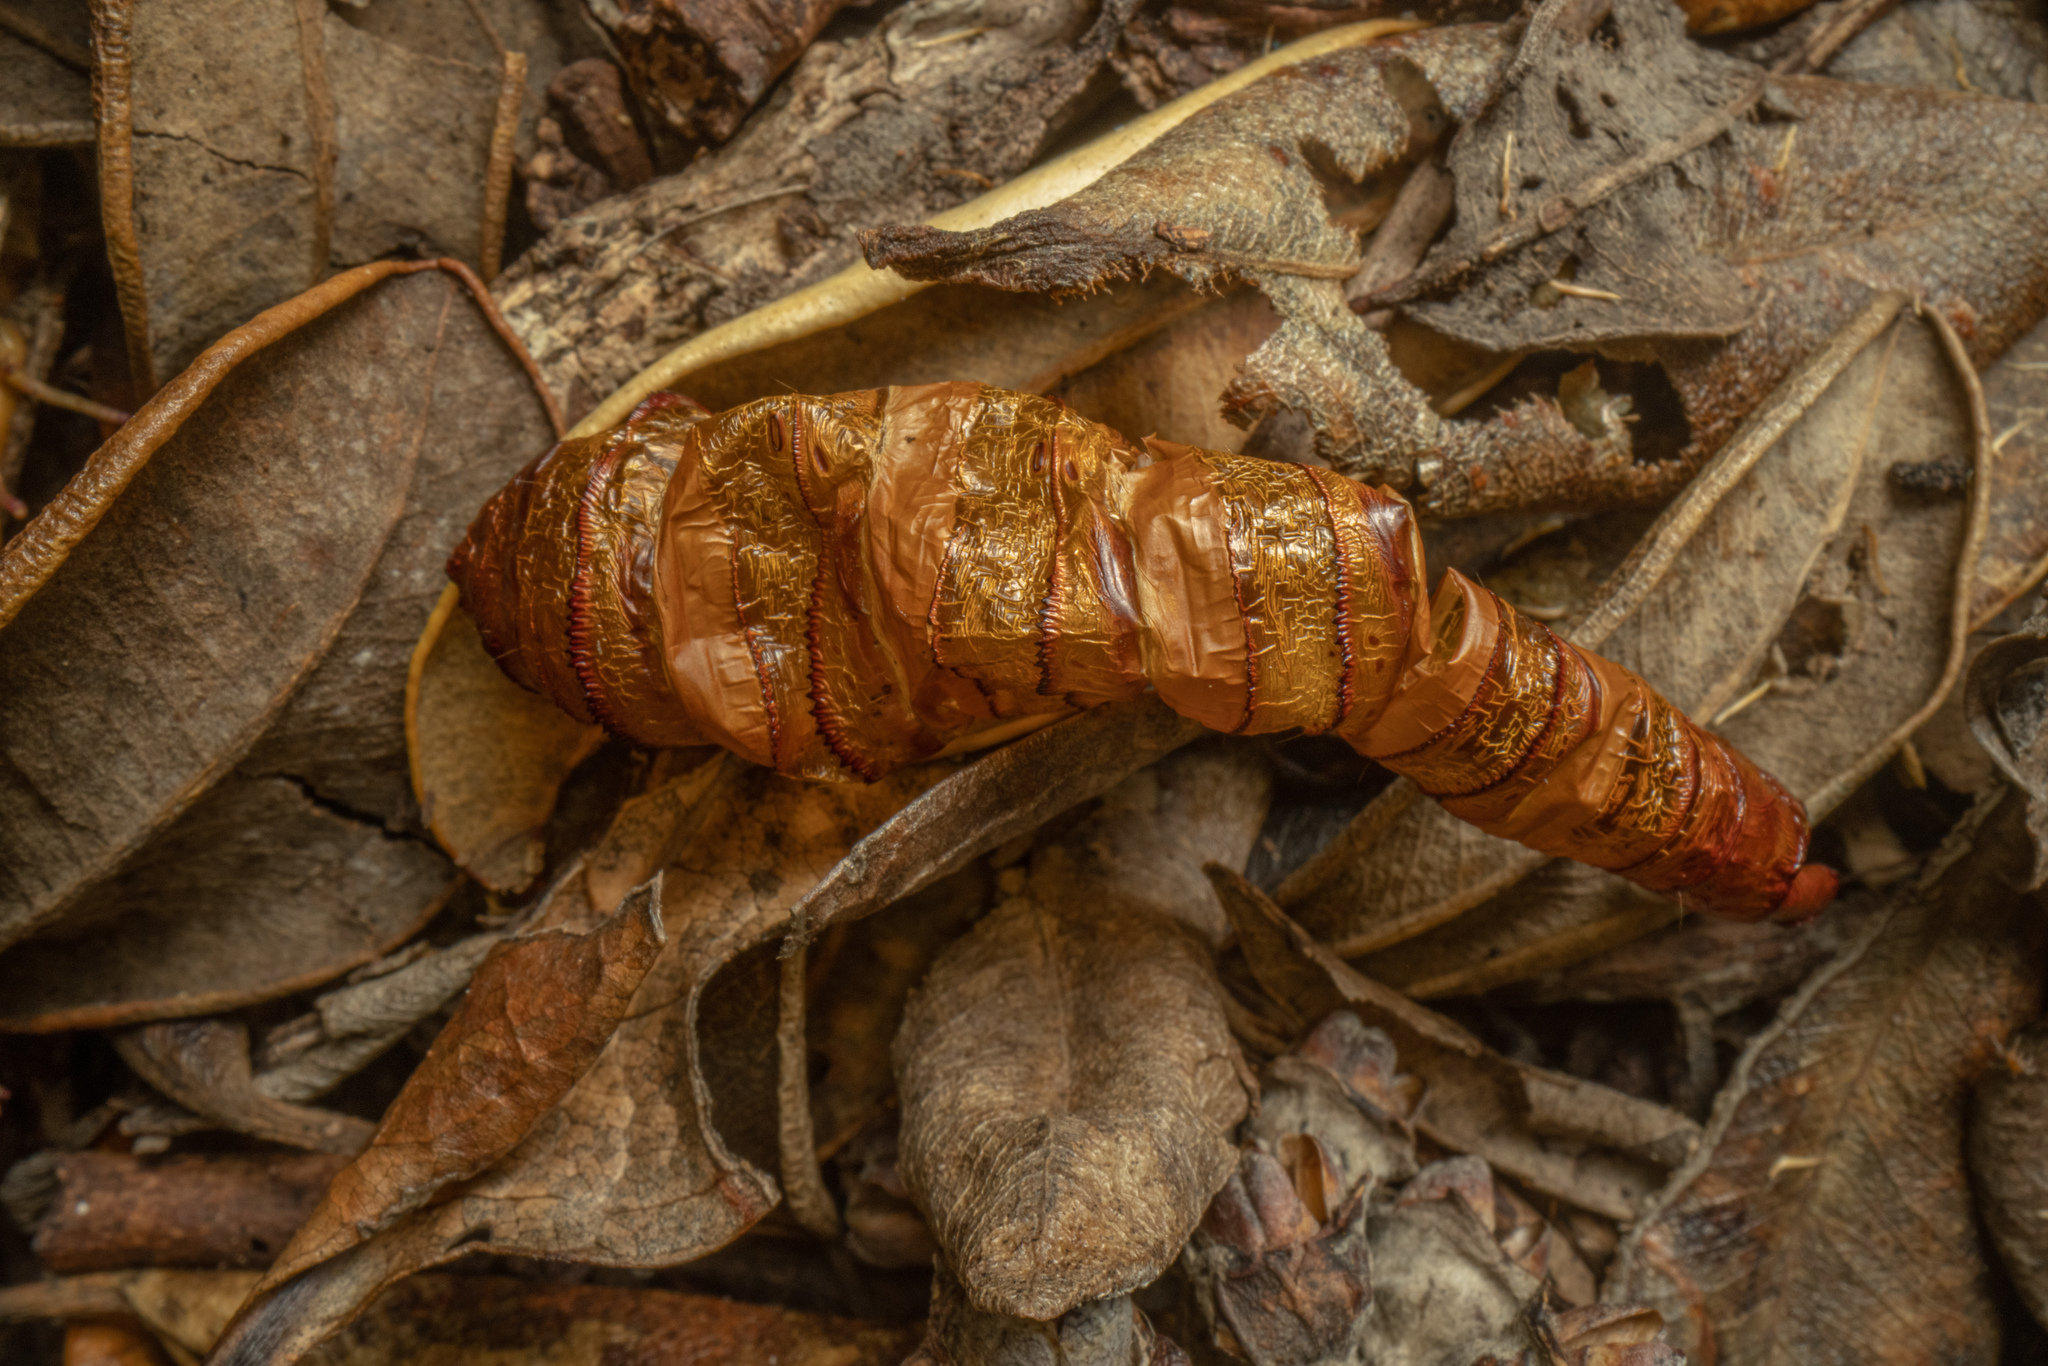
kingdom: Animalia
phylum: Arthropoda
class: Insecta
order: Lepidoptera
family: Hepialidae
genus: Dumbletonius
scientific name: Dumbletonius unimaculata
